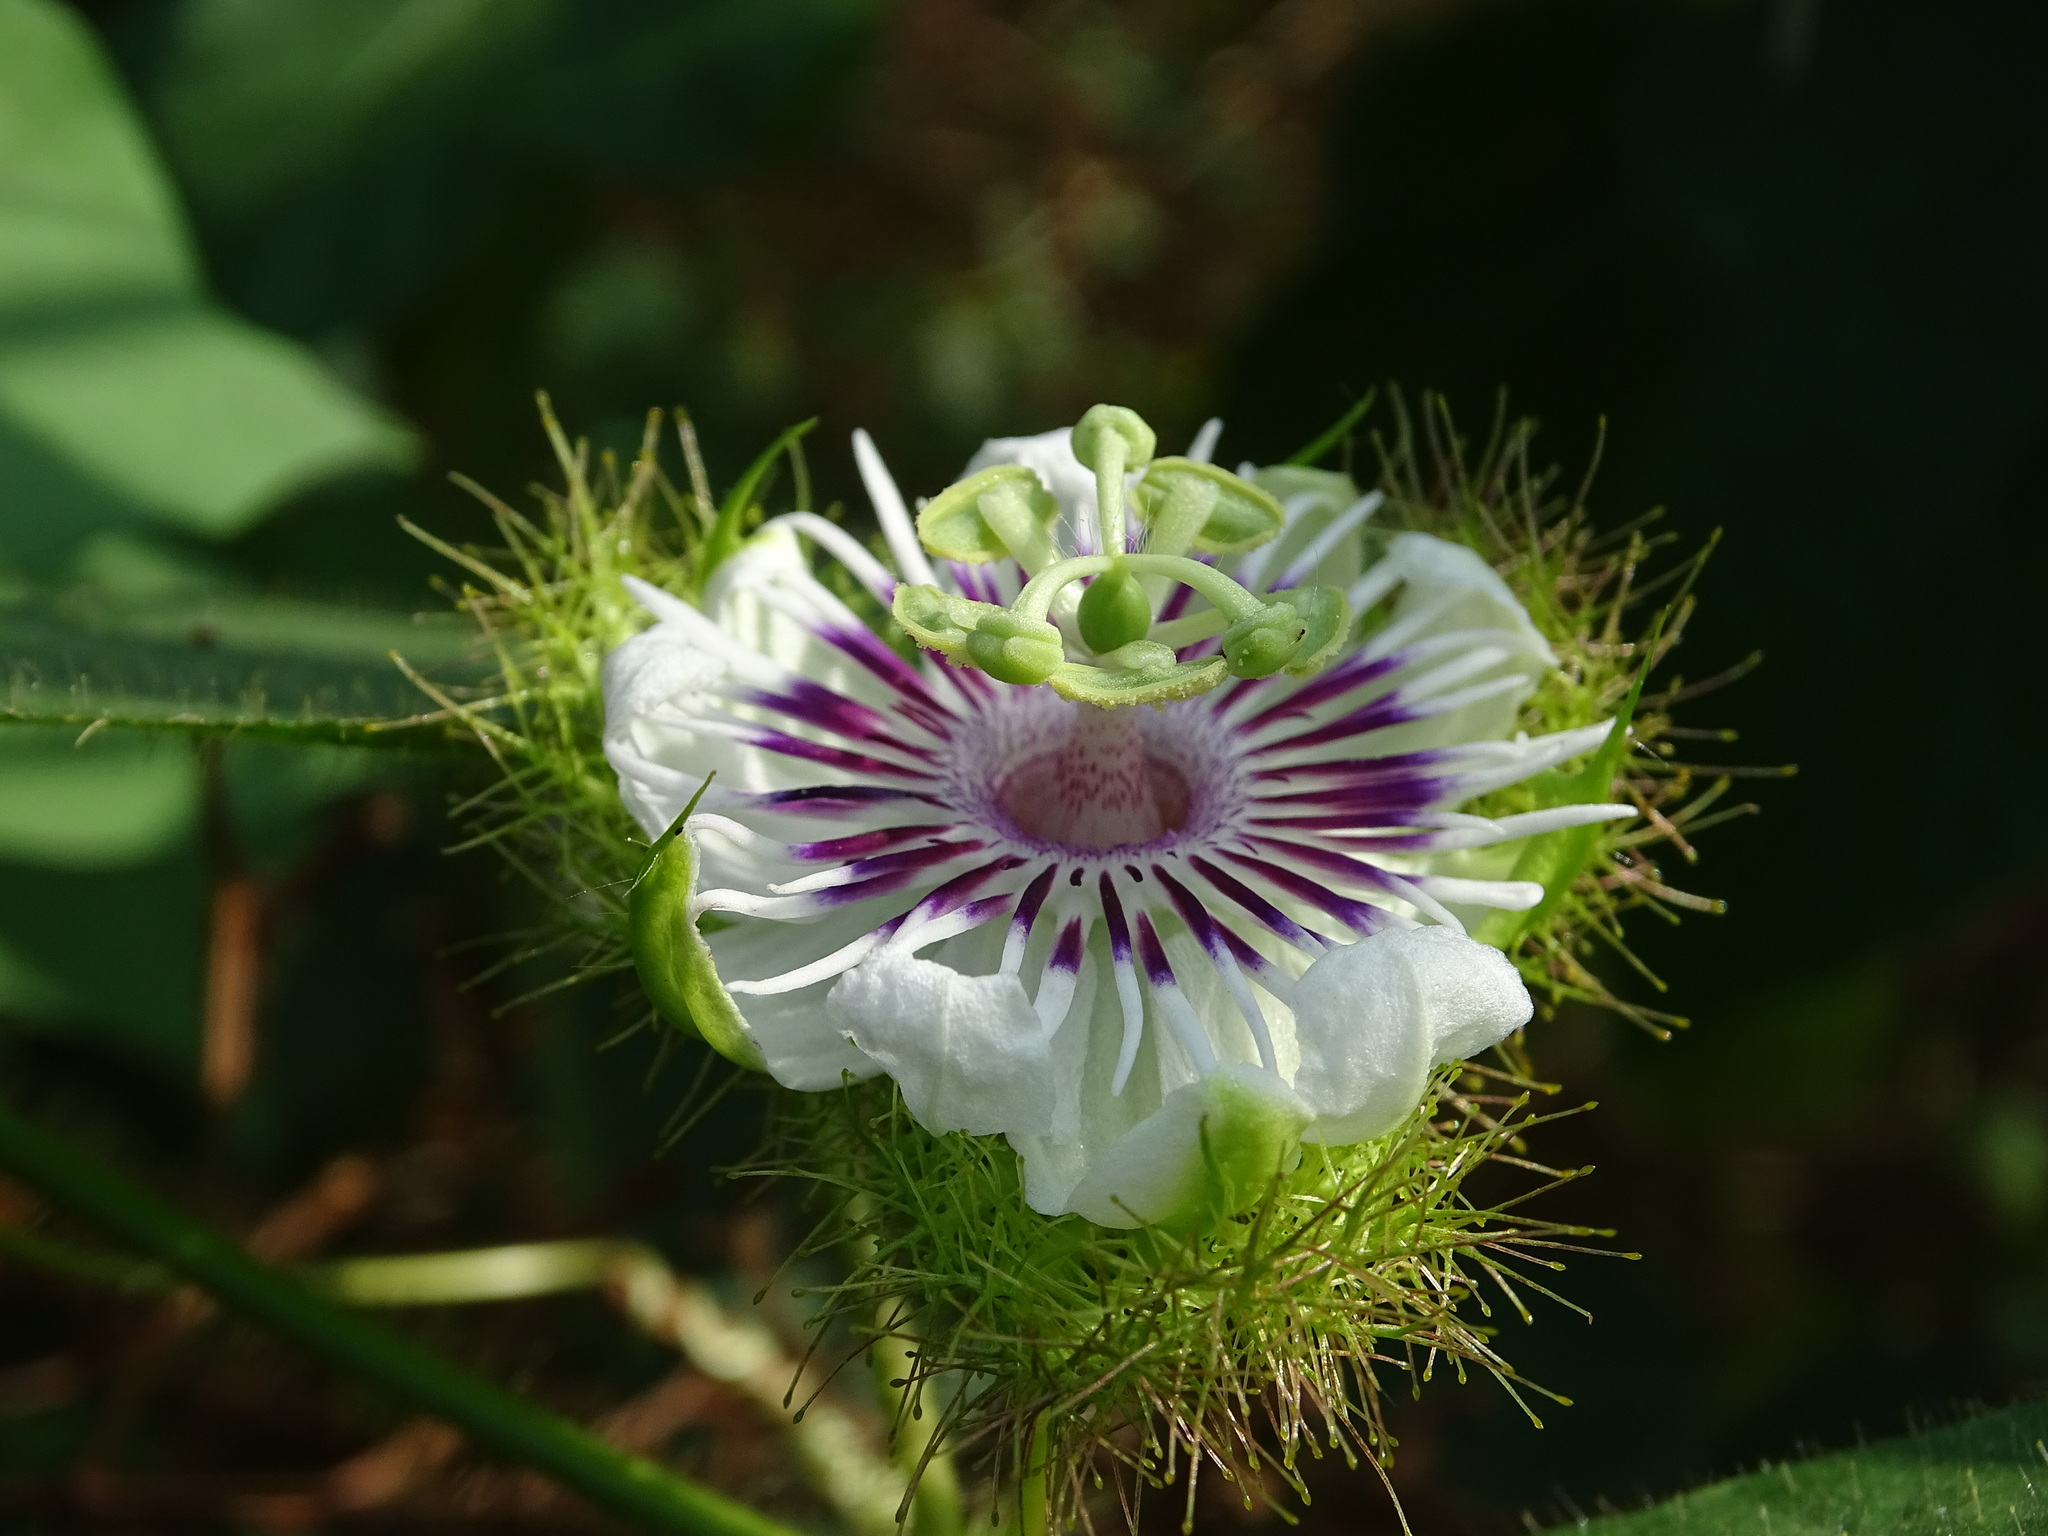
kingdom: Plantae
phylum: Tracheophyta
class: Magnoliopsida
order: Malpighiales
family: Passifloraceae
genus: Passiflora
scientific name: Passiflora vesicaria
